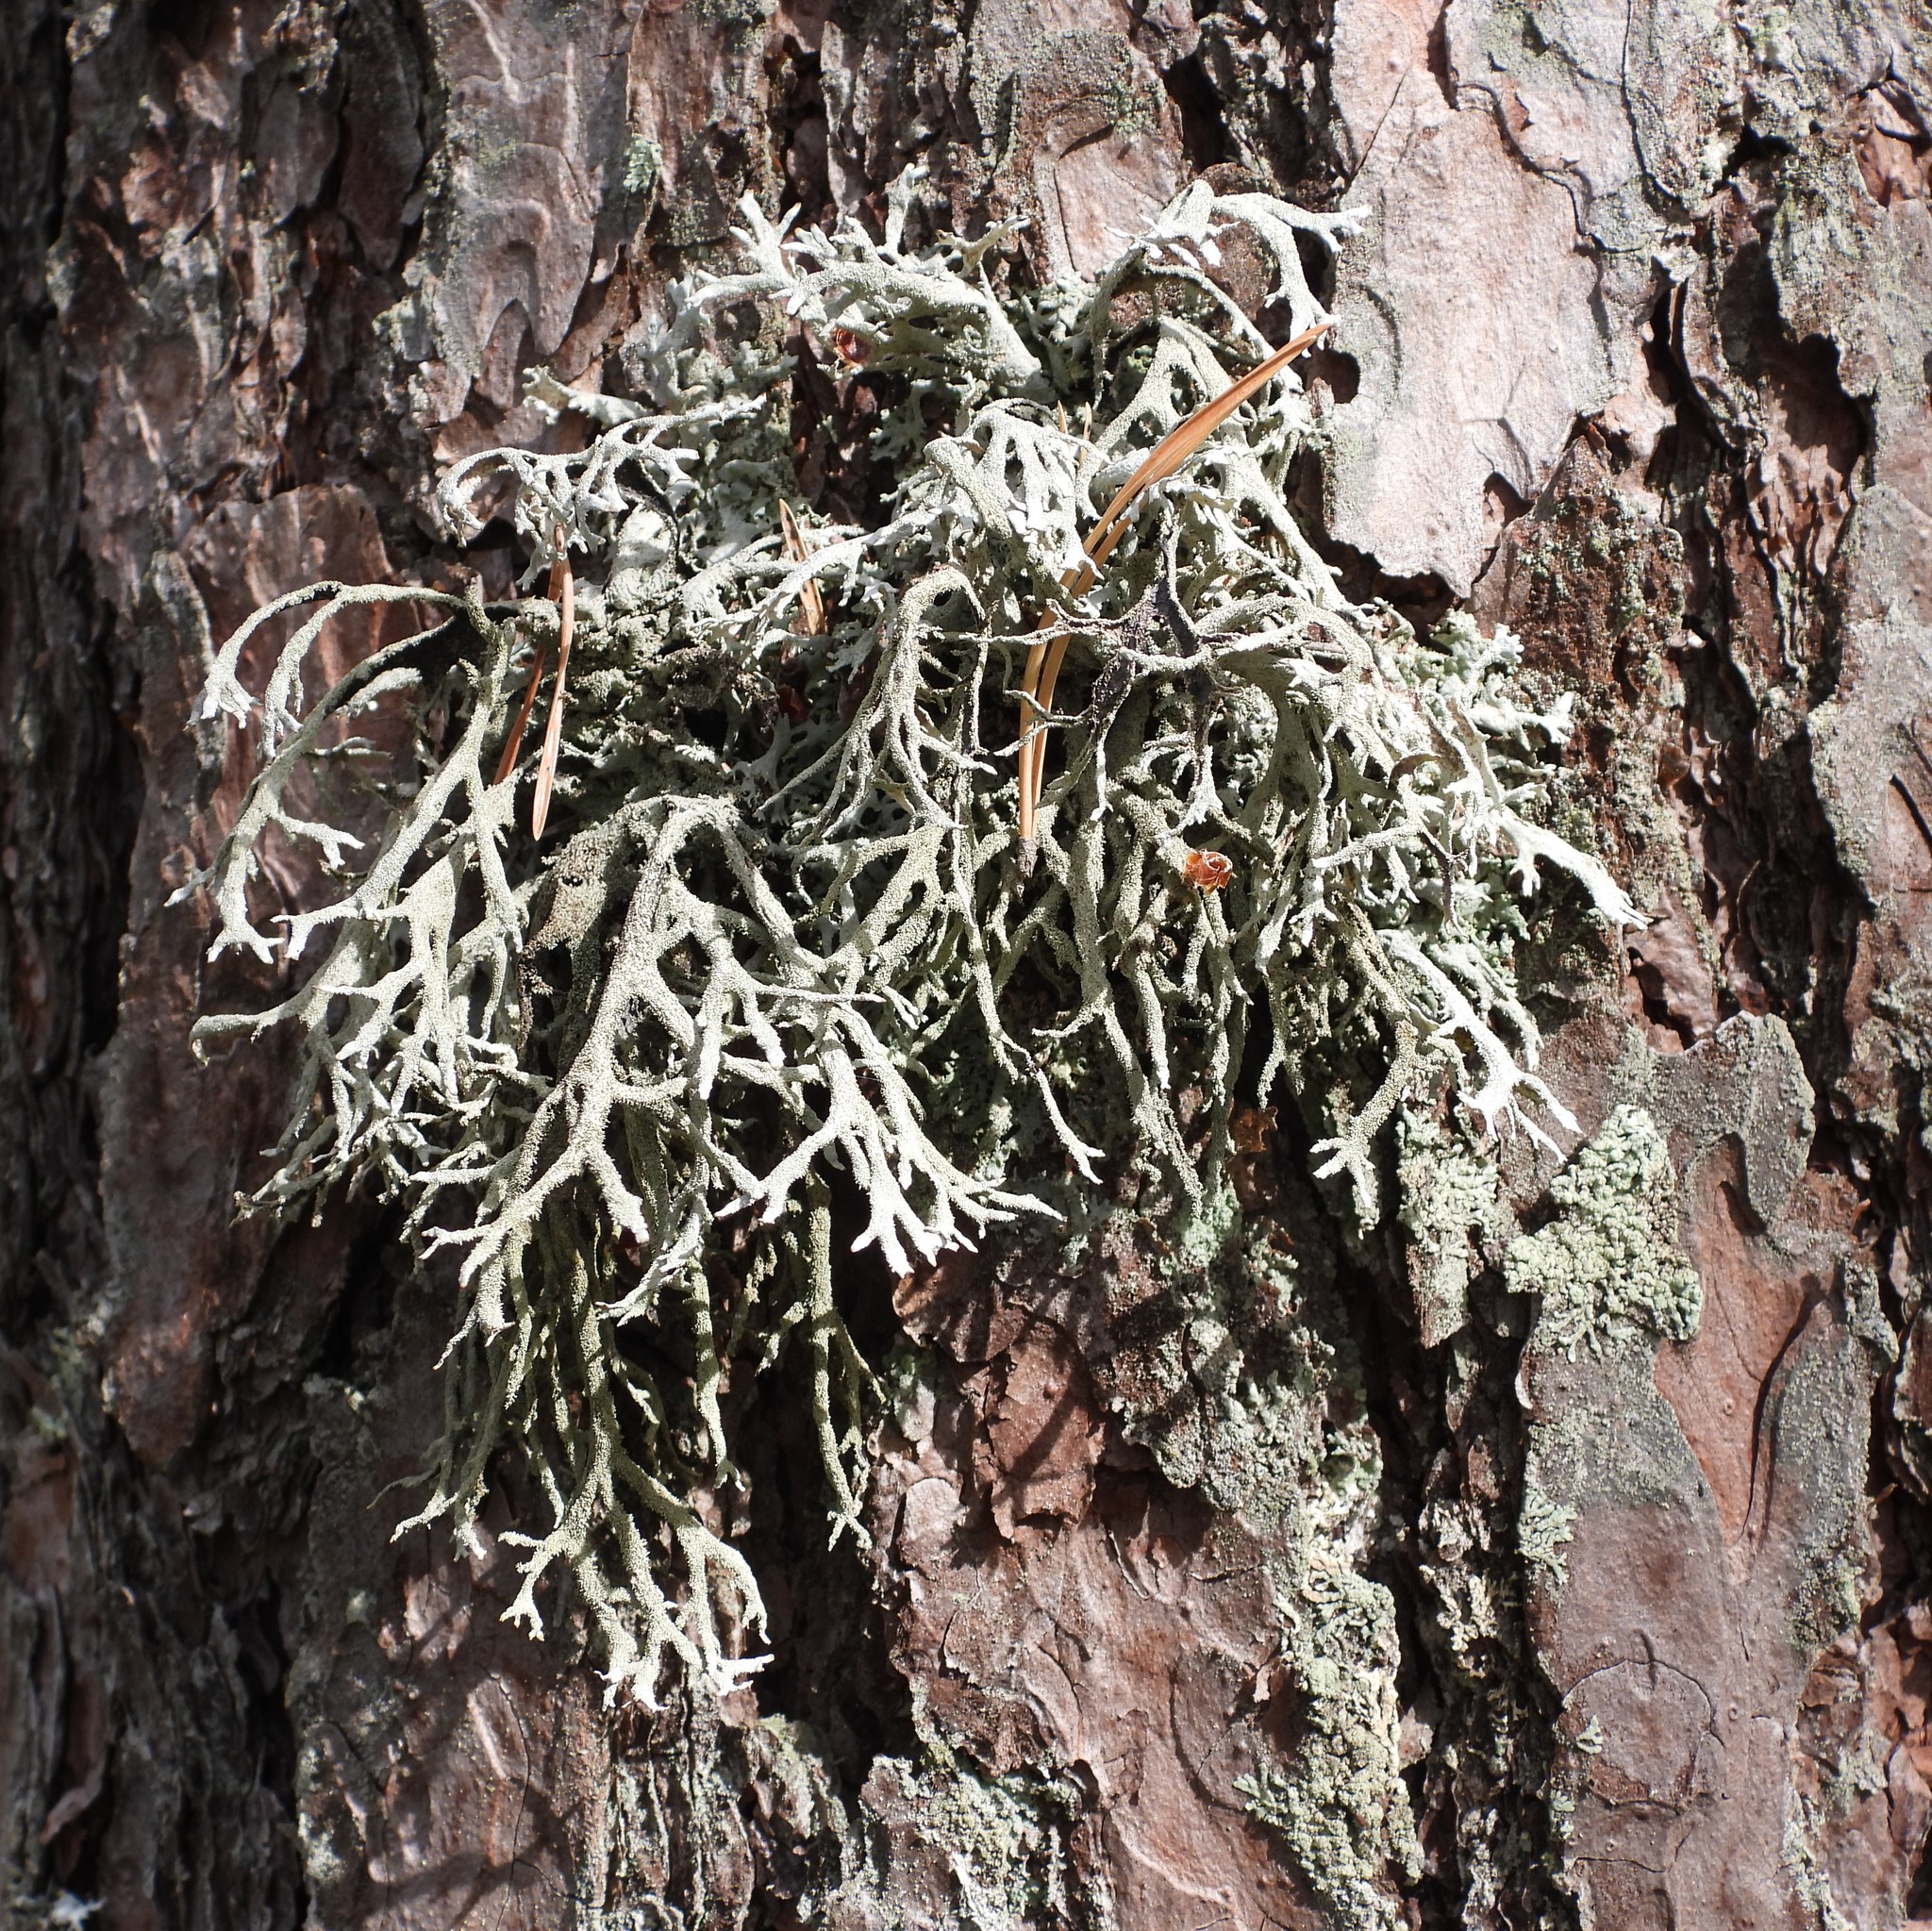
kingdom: Fungi
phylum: Ascomycota
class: Lecanoromycetes
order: Lecanorales
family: Parmeliaceae
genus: Pseudevernia
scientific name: Pseudevernia furfuracea
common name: Tree moss
